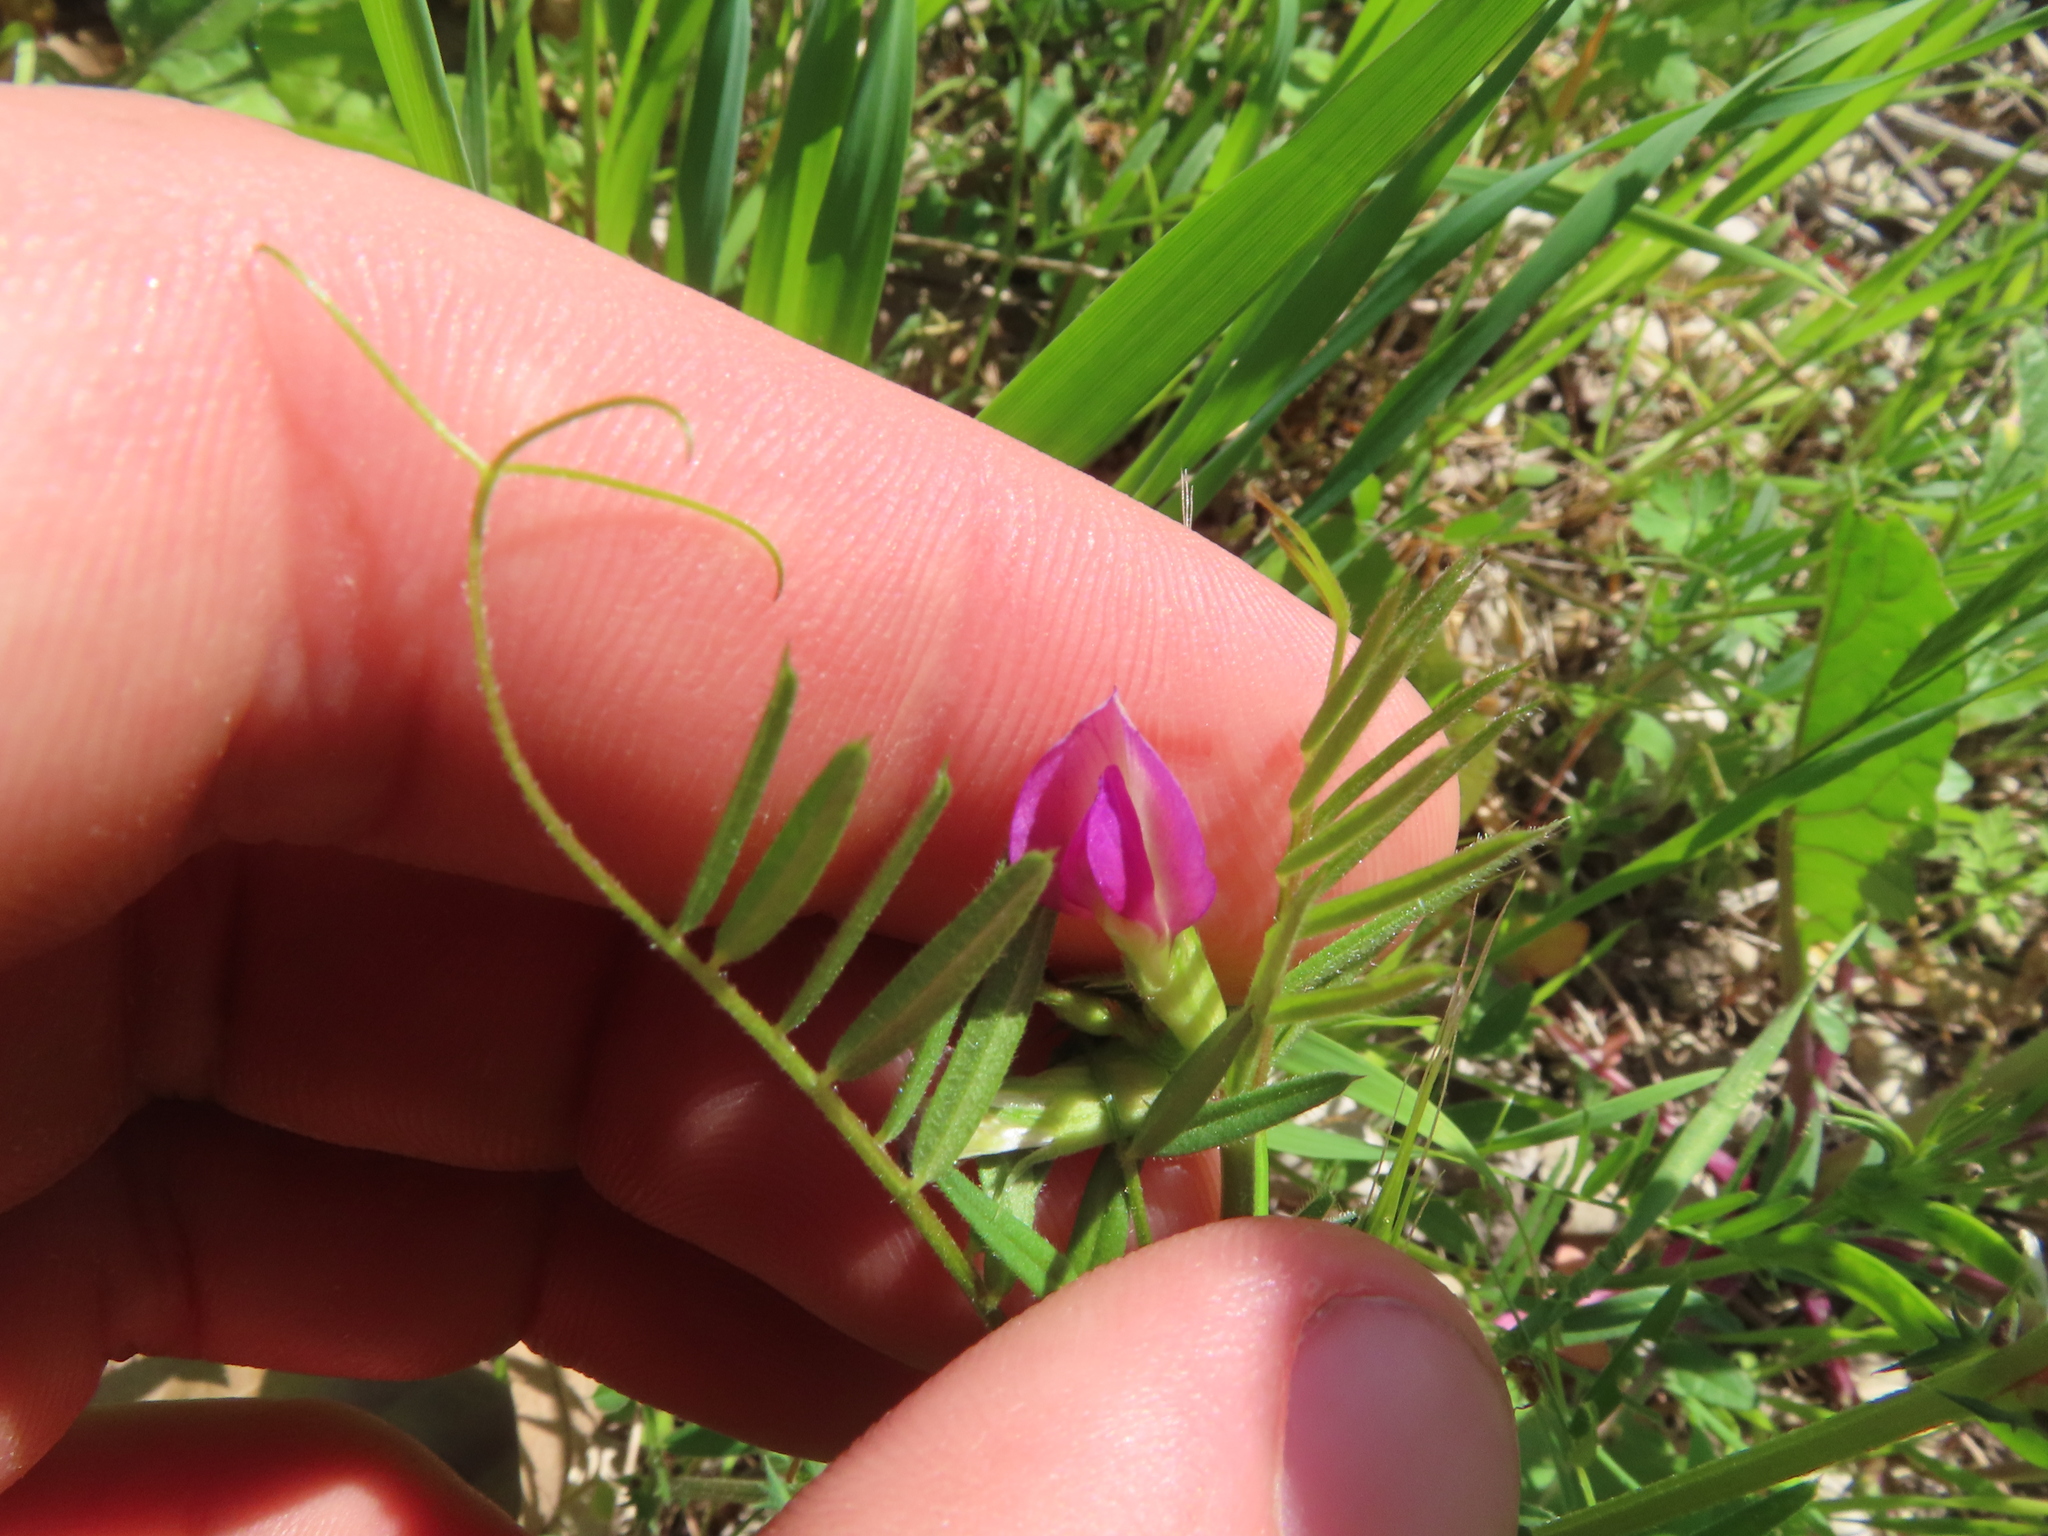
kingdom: Plantae
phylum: Tracheophyta
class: Magnoliopsida
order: Fabales
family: Fabaceae
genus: Vicia
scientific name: Vicia sativa
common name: Garden vetch
